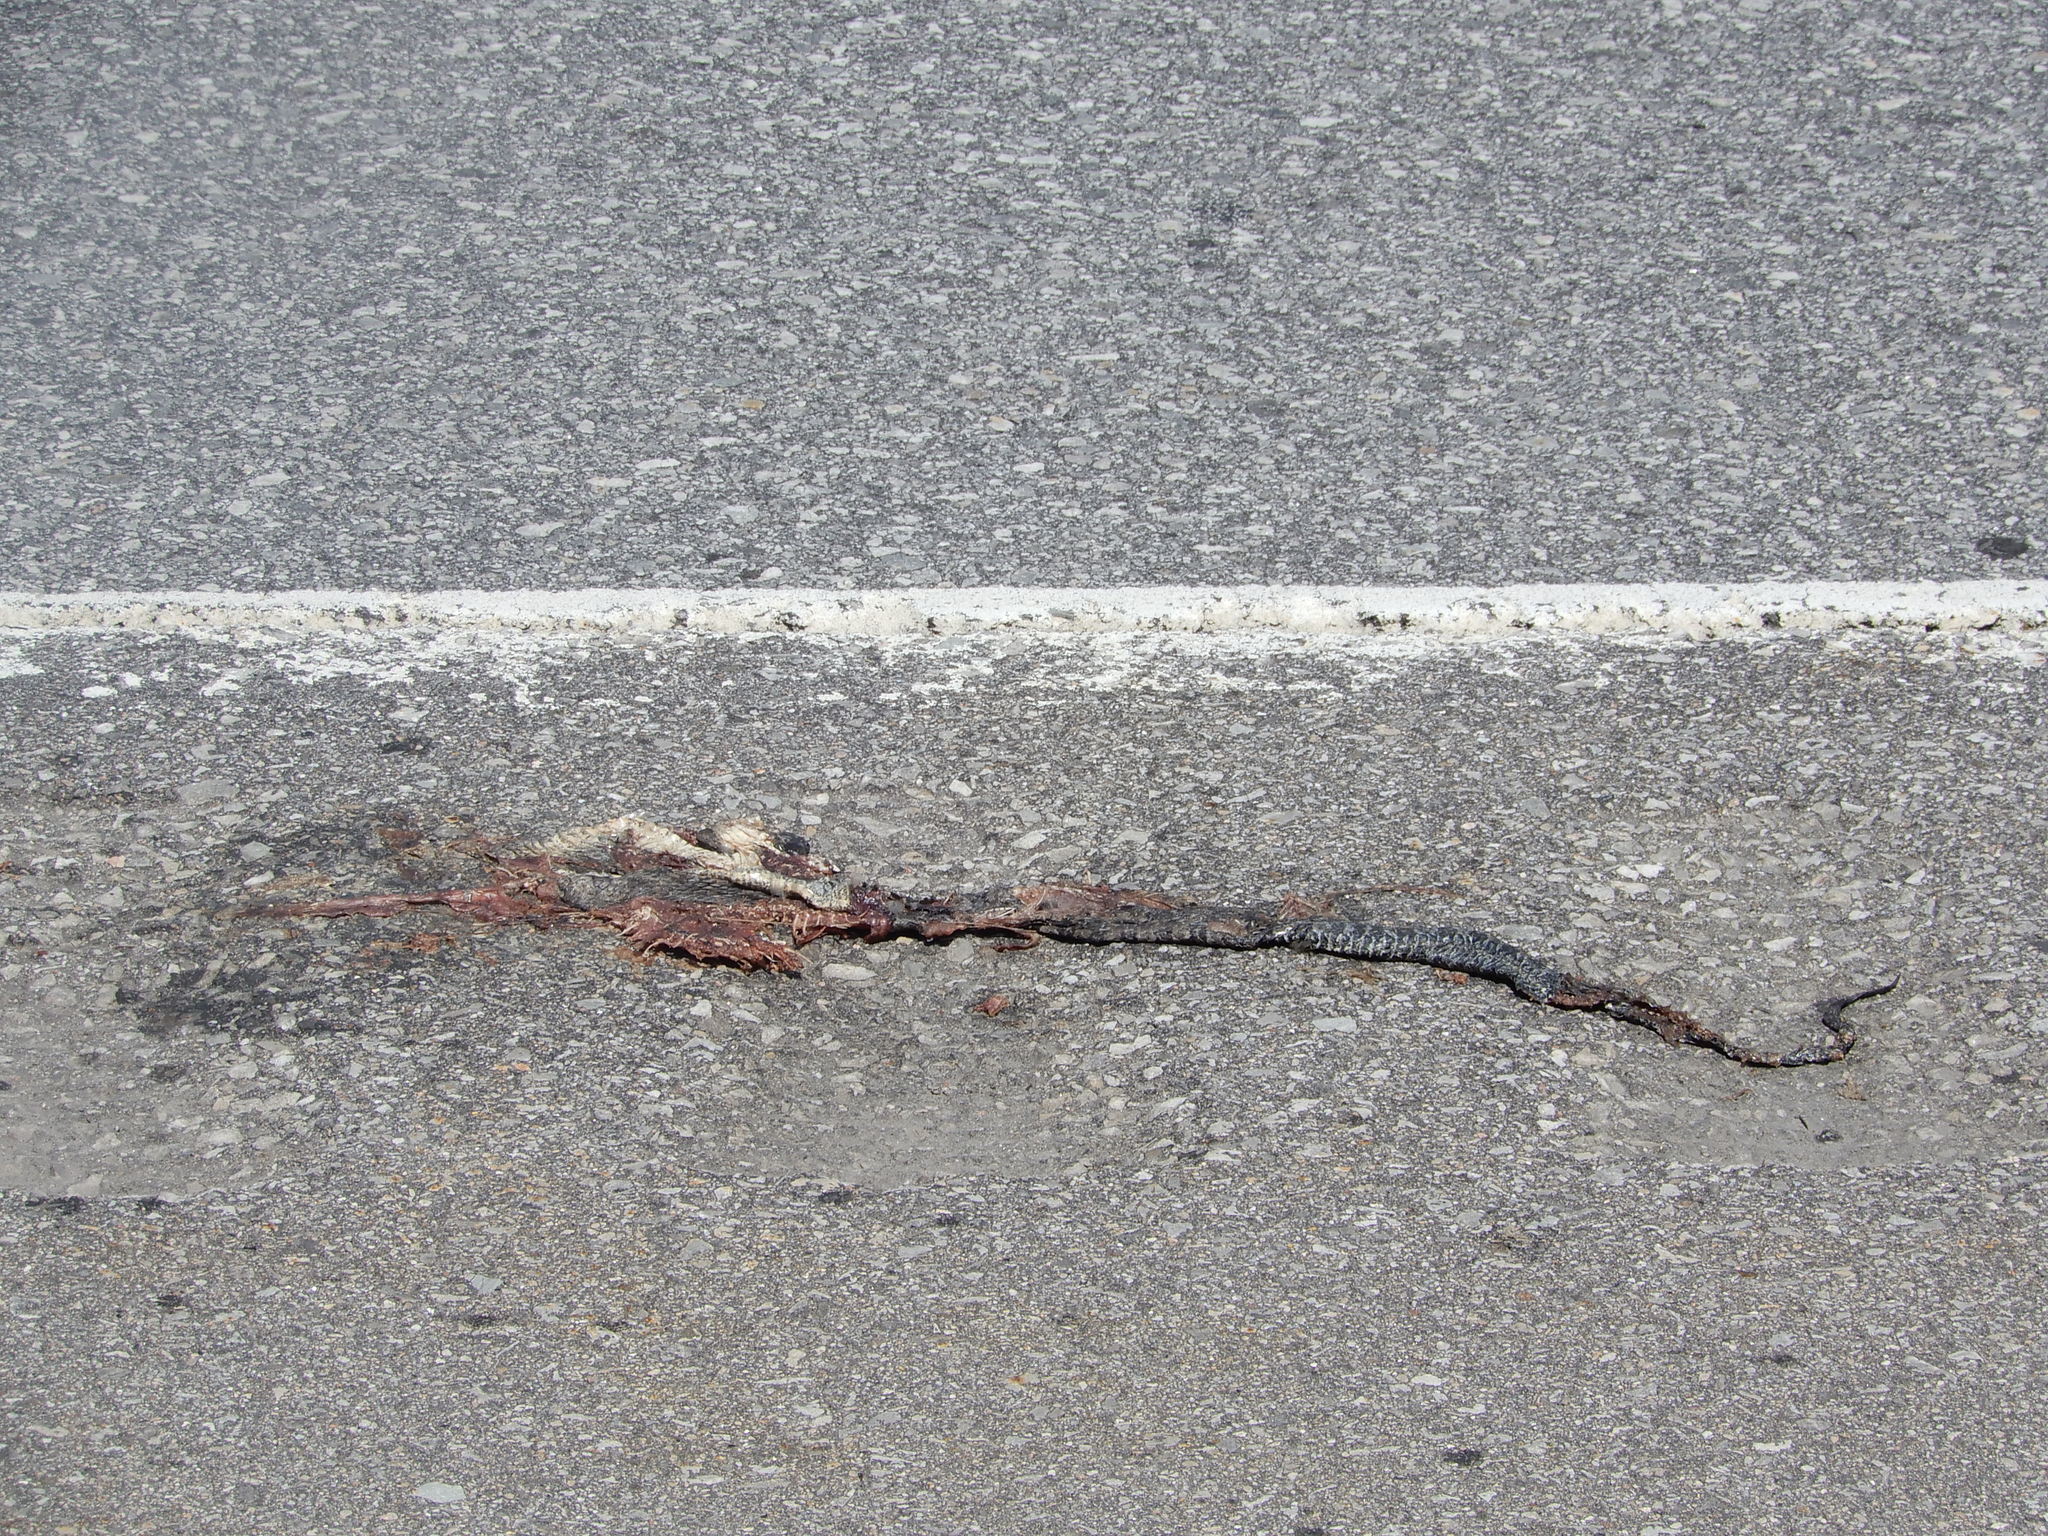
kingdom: Animalia
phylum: Chordata
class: Squamata
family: Colubridae
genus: Nerodia
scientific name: Nerodia sipedon
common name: Northern water snake
